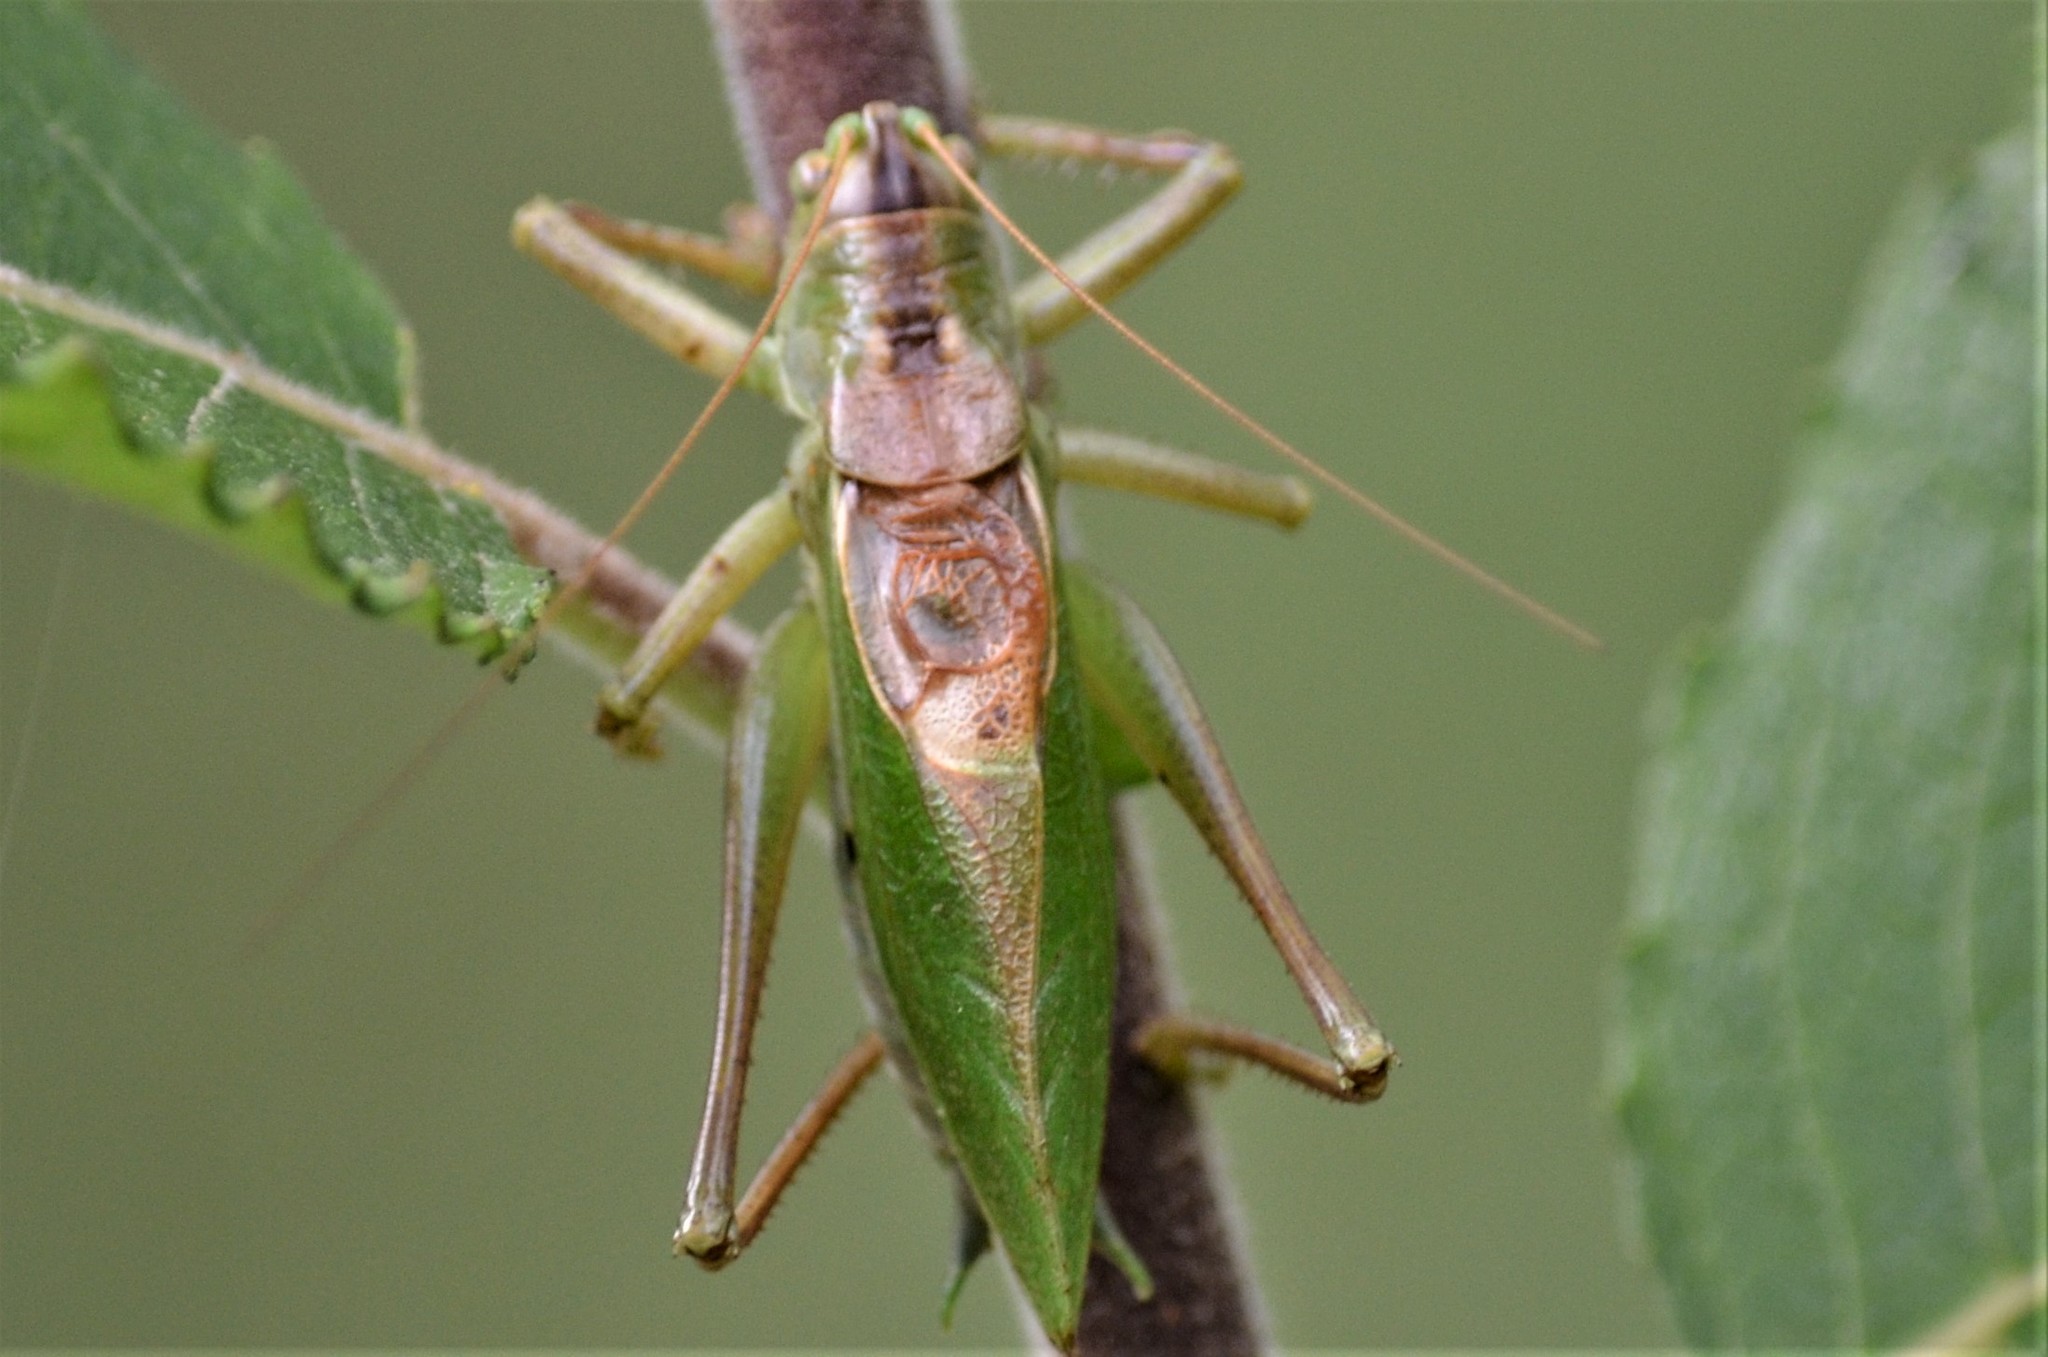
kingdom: Animalia
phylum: Arthropoda
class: Insecta
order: Orthoptera
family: Tettigoniidae
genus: Tettigonia
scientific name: Tettigonia cantans
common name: Upland green bush-cricket
